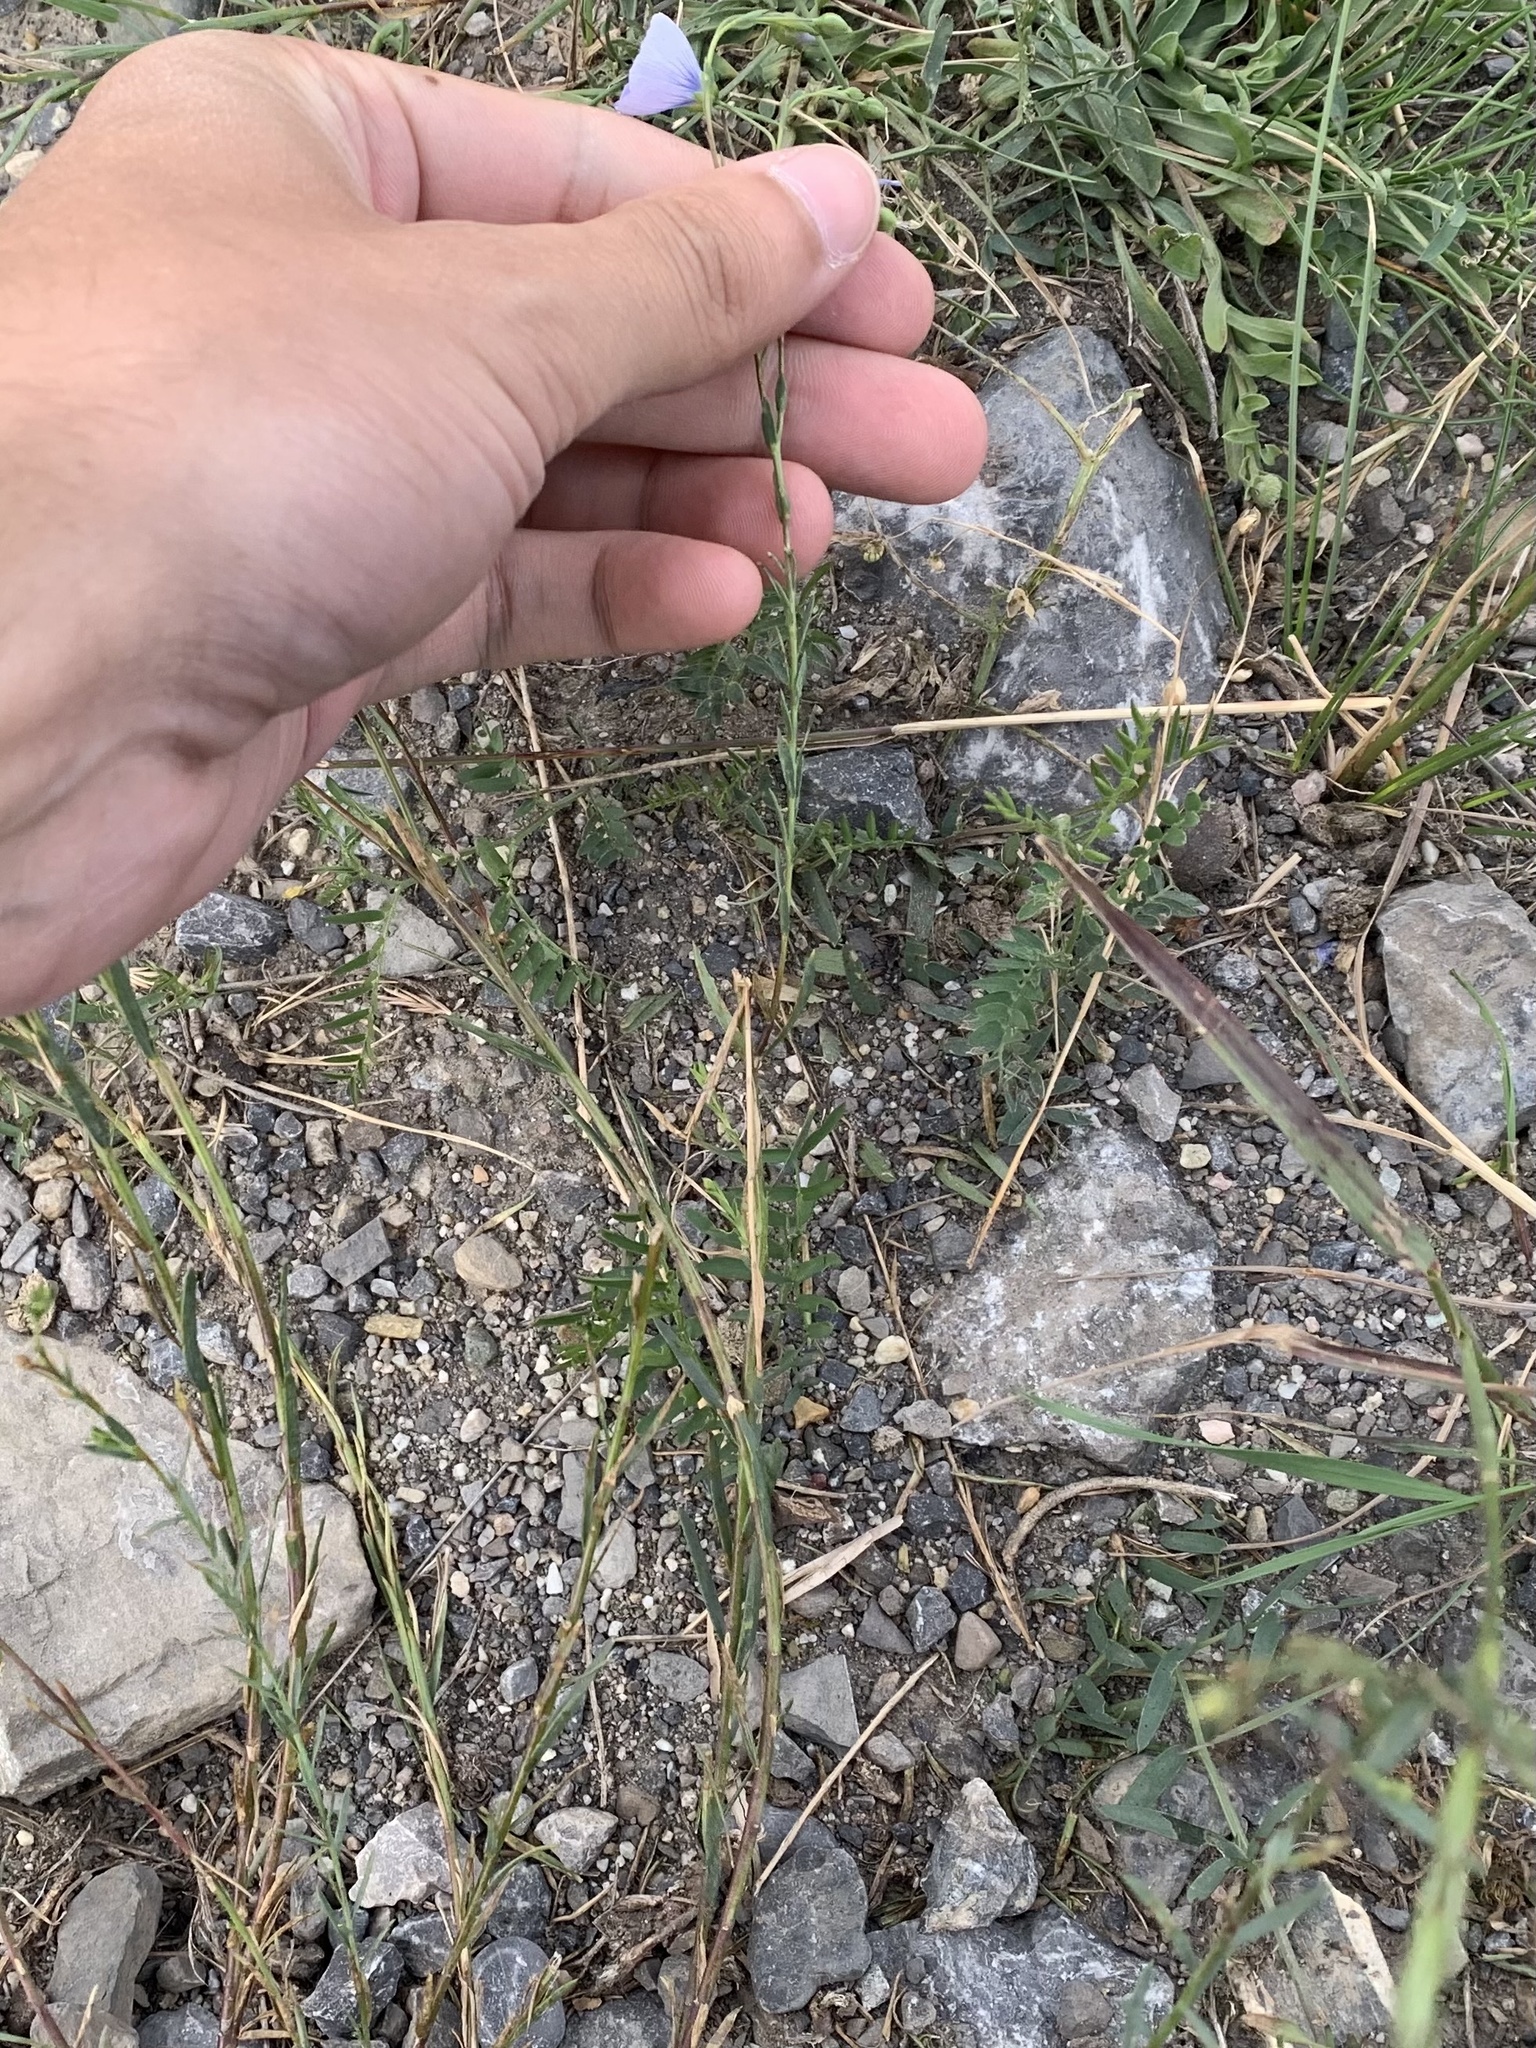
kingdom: Plantae
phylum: Tracheophyta
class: Magnoliopsida
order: Malpighiales
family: Linaceae
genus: Linum
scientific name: Linum lewisii
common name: Prairie flax
